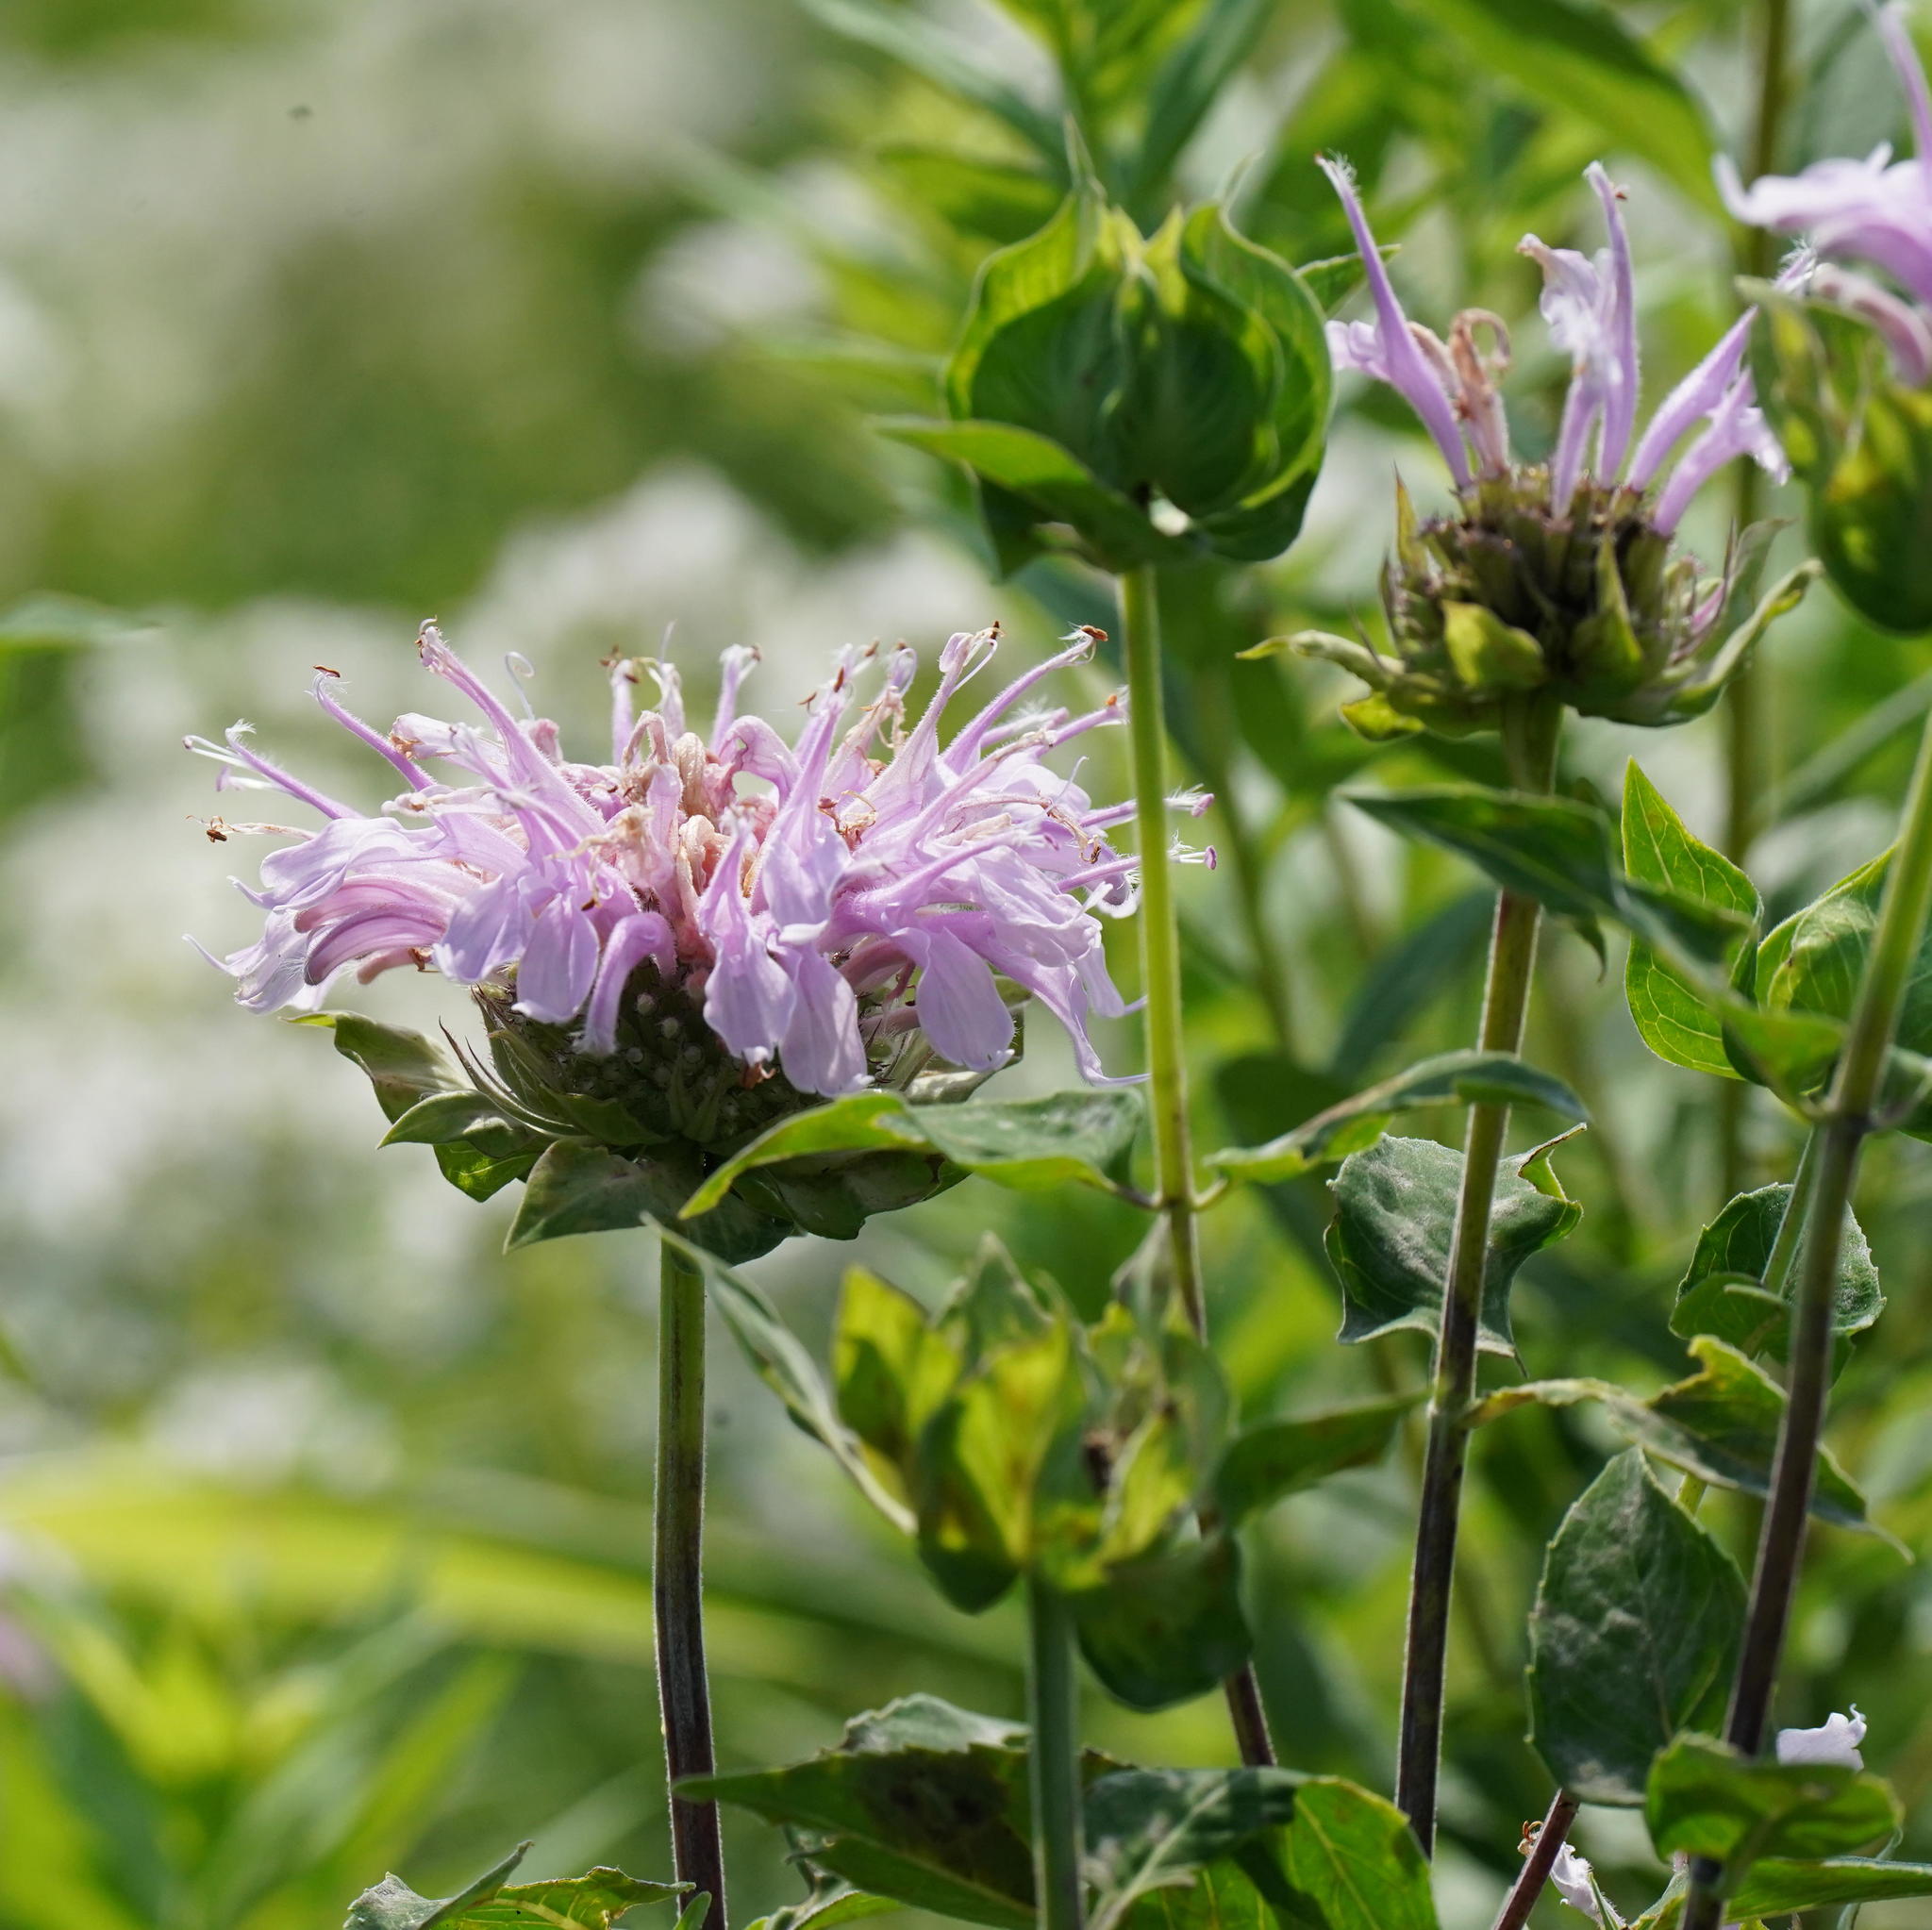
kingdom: Plantae
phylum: Tracheophyta
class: Magnoliopsida
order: Lamiales
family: Lamiaceae
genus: Monarda
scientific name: Monarda fistulosa
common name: Purple beebalm
